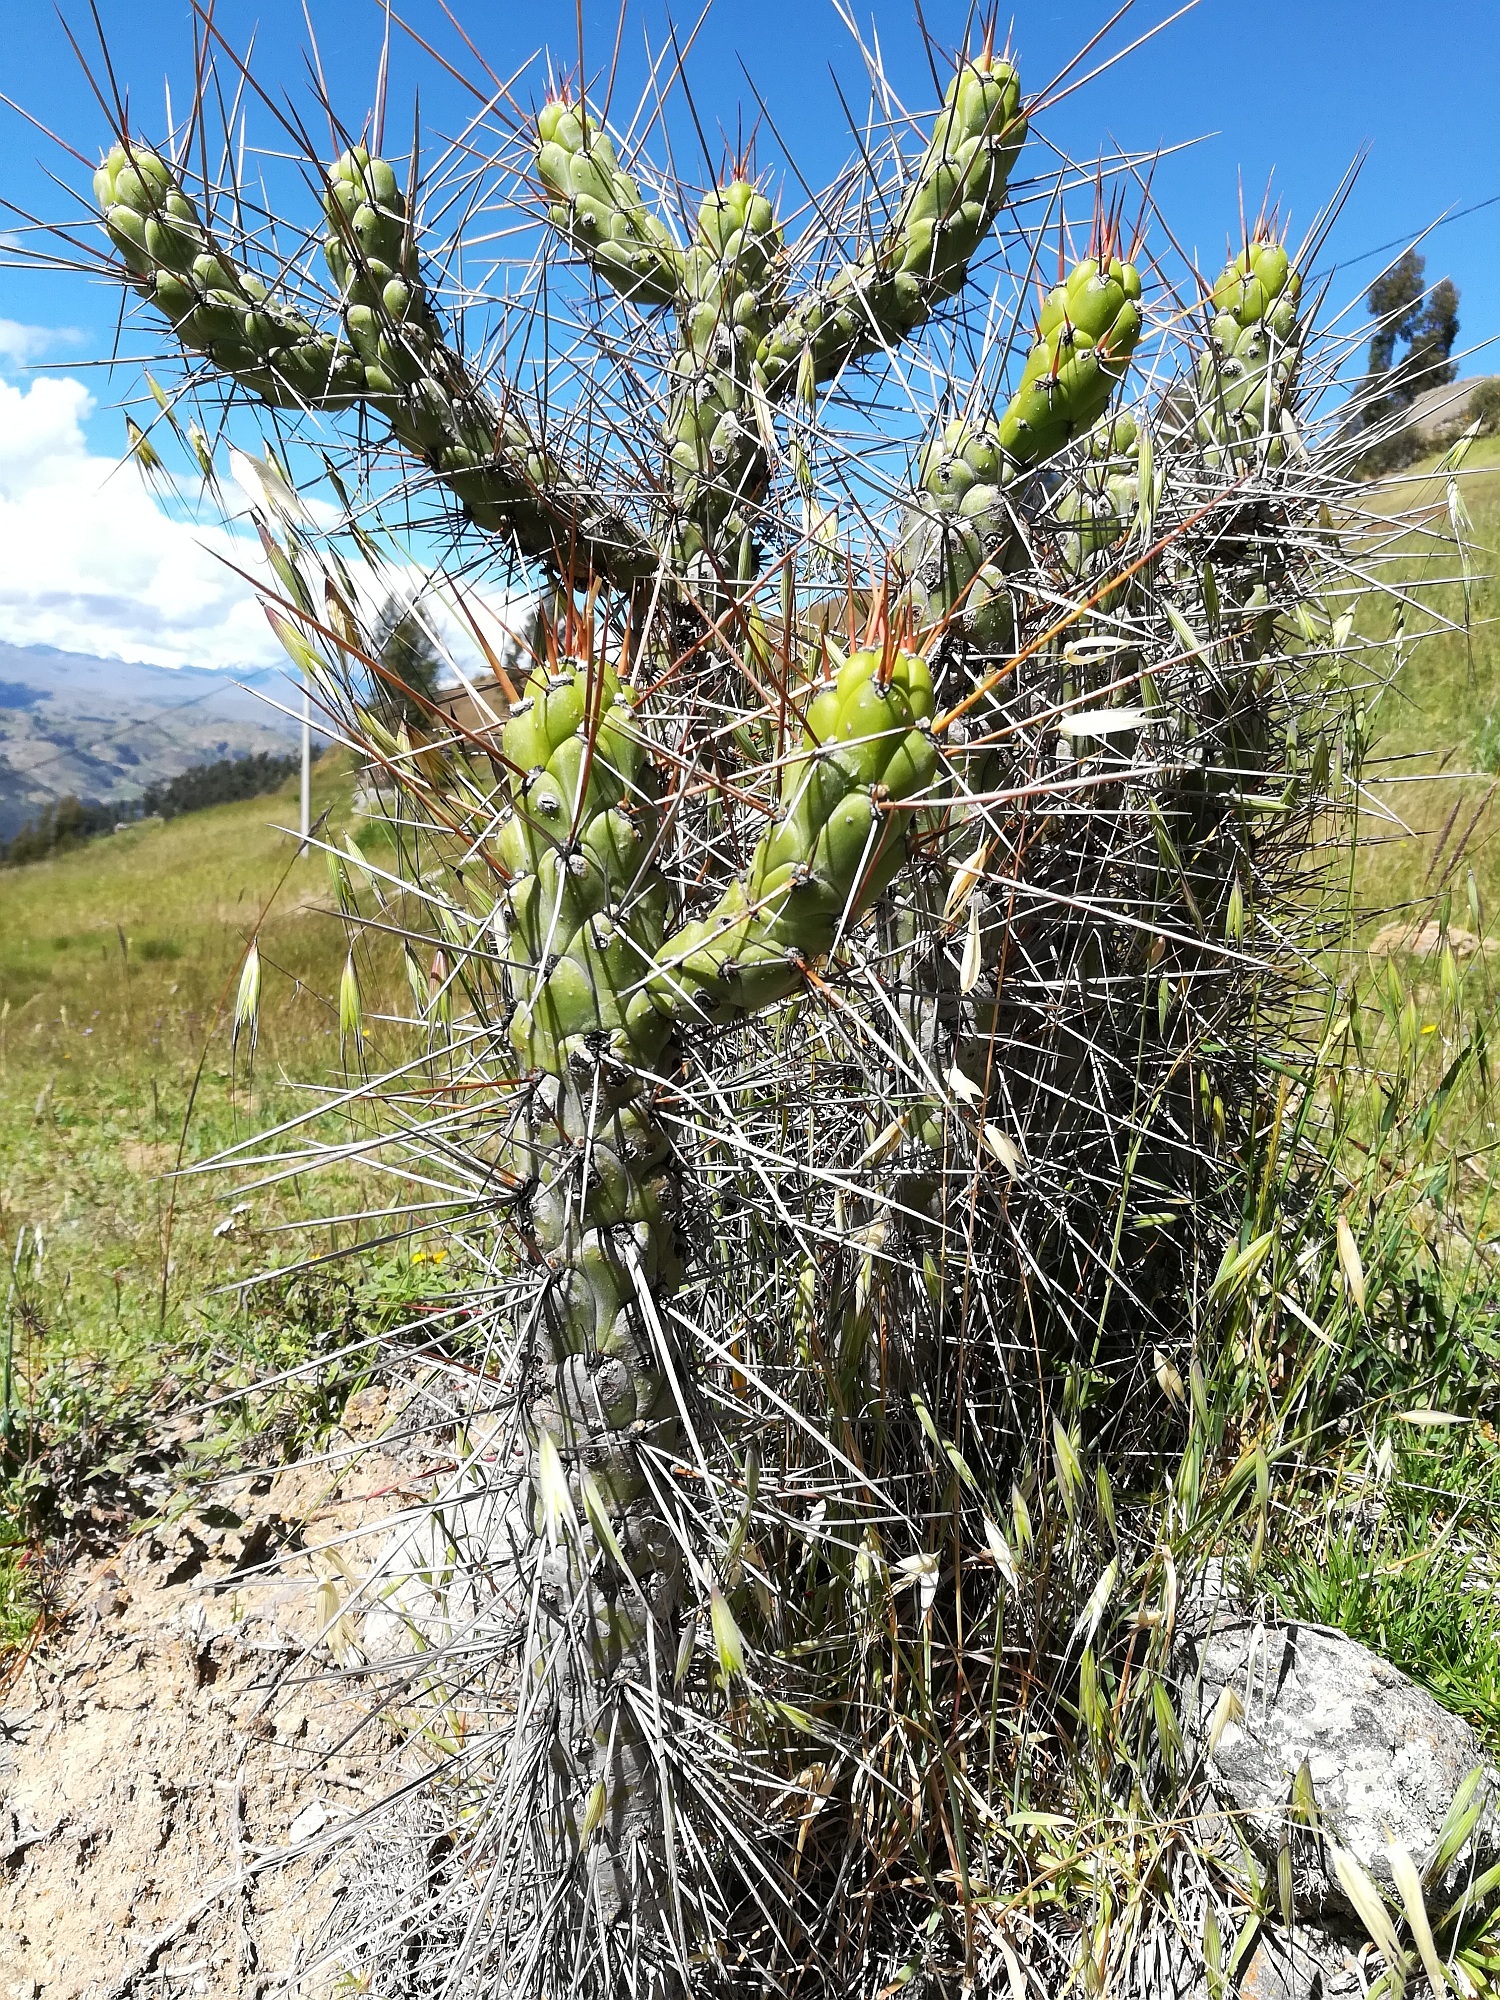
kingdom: Plantae
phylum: Tracheophyta
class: Magnoliopsida
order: Caryophyllales
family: Cactaceae
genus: Austrocylindropuntia
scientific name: Austrocylindropuntia subulata
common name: Eve's needle cactus
